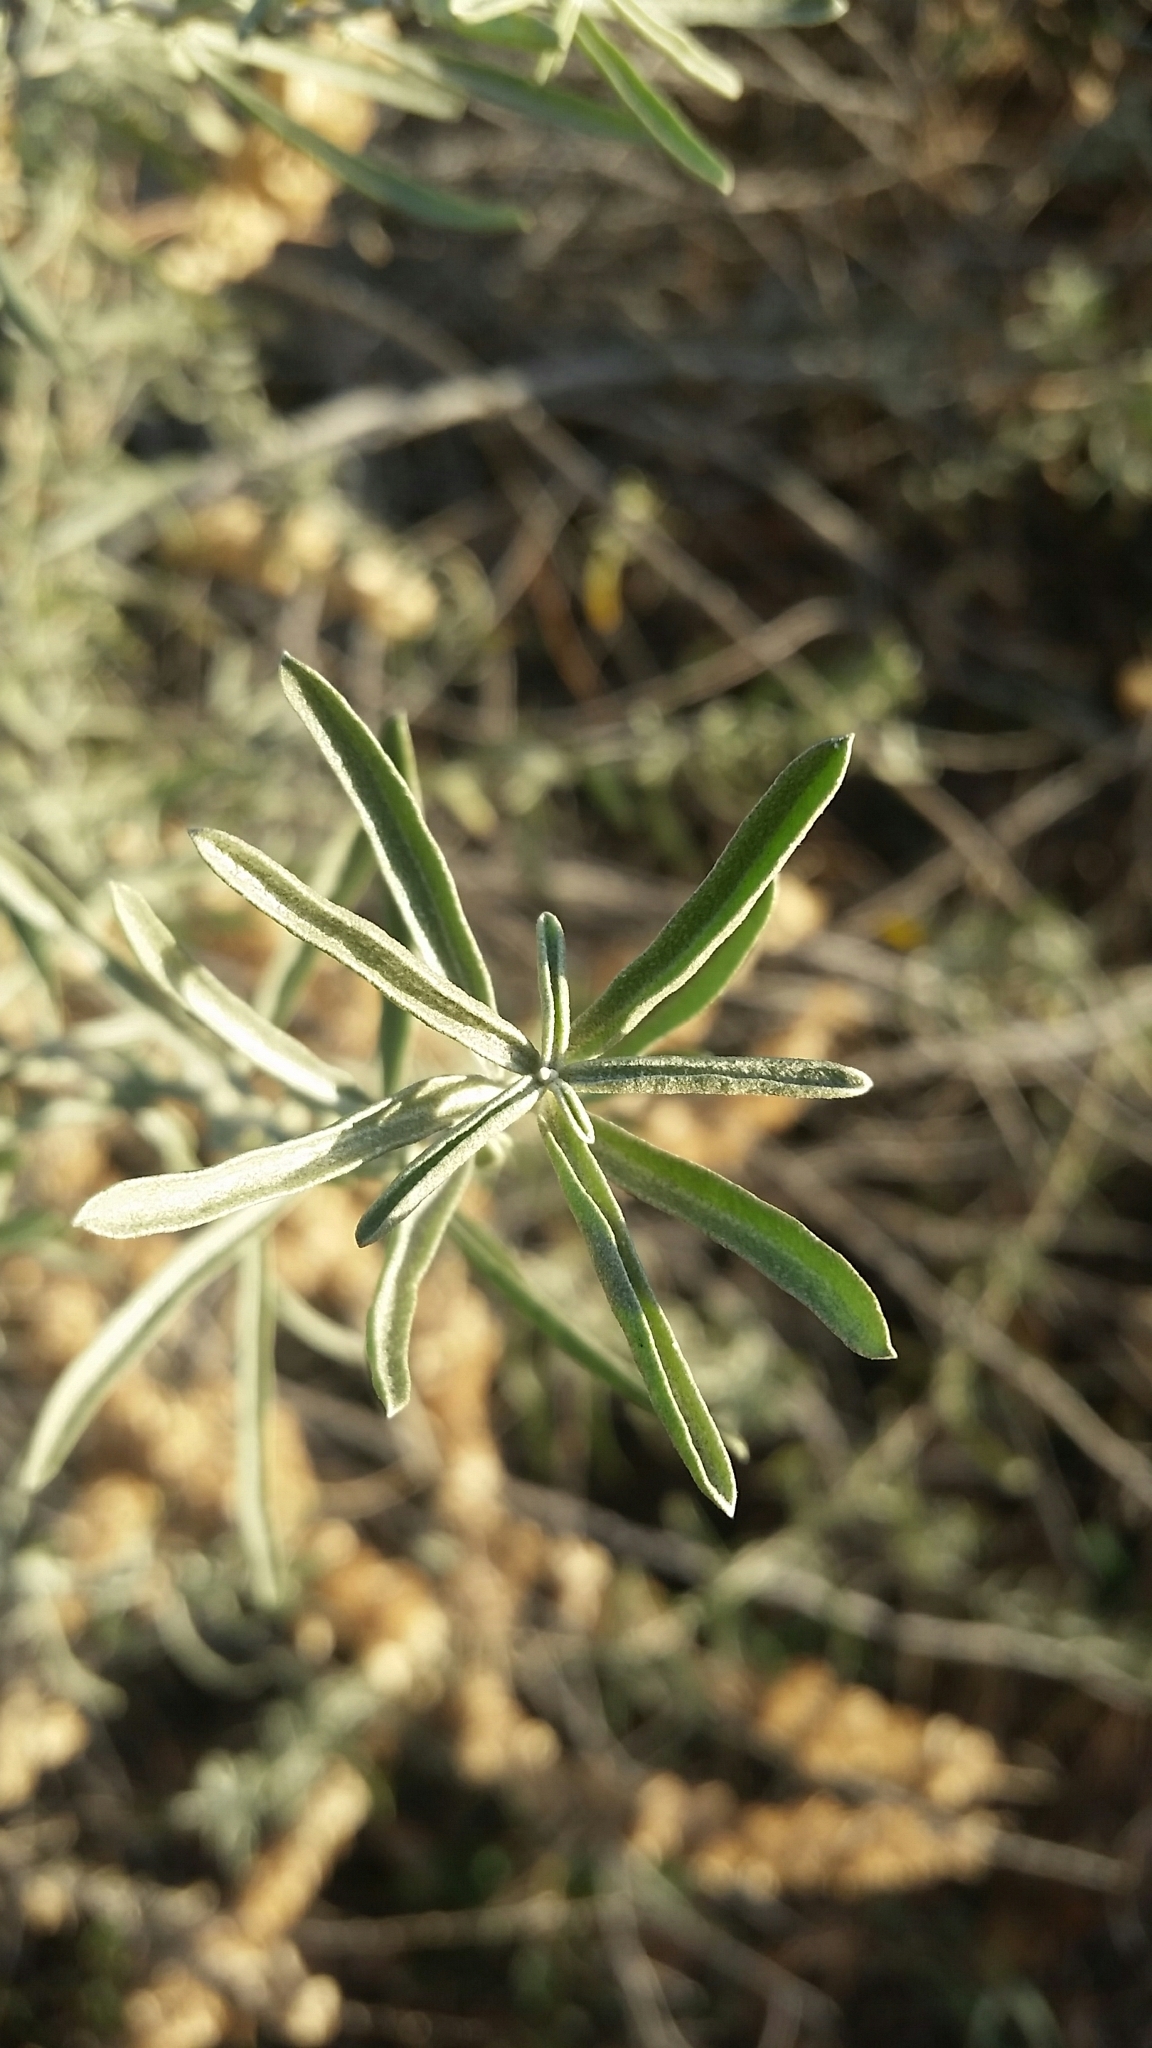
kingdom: Plantae
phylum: Tracheophyta
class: Magnoliopsida
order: Caryophyllales
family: Amaranthaceae
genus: Atriplex
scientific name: Atriplex canescens
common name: Four-wing saltbush
